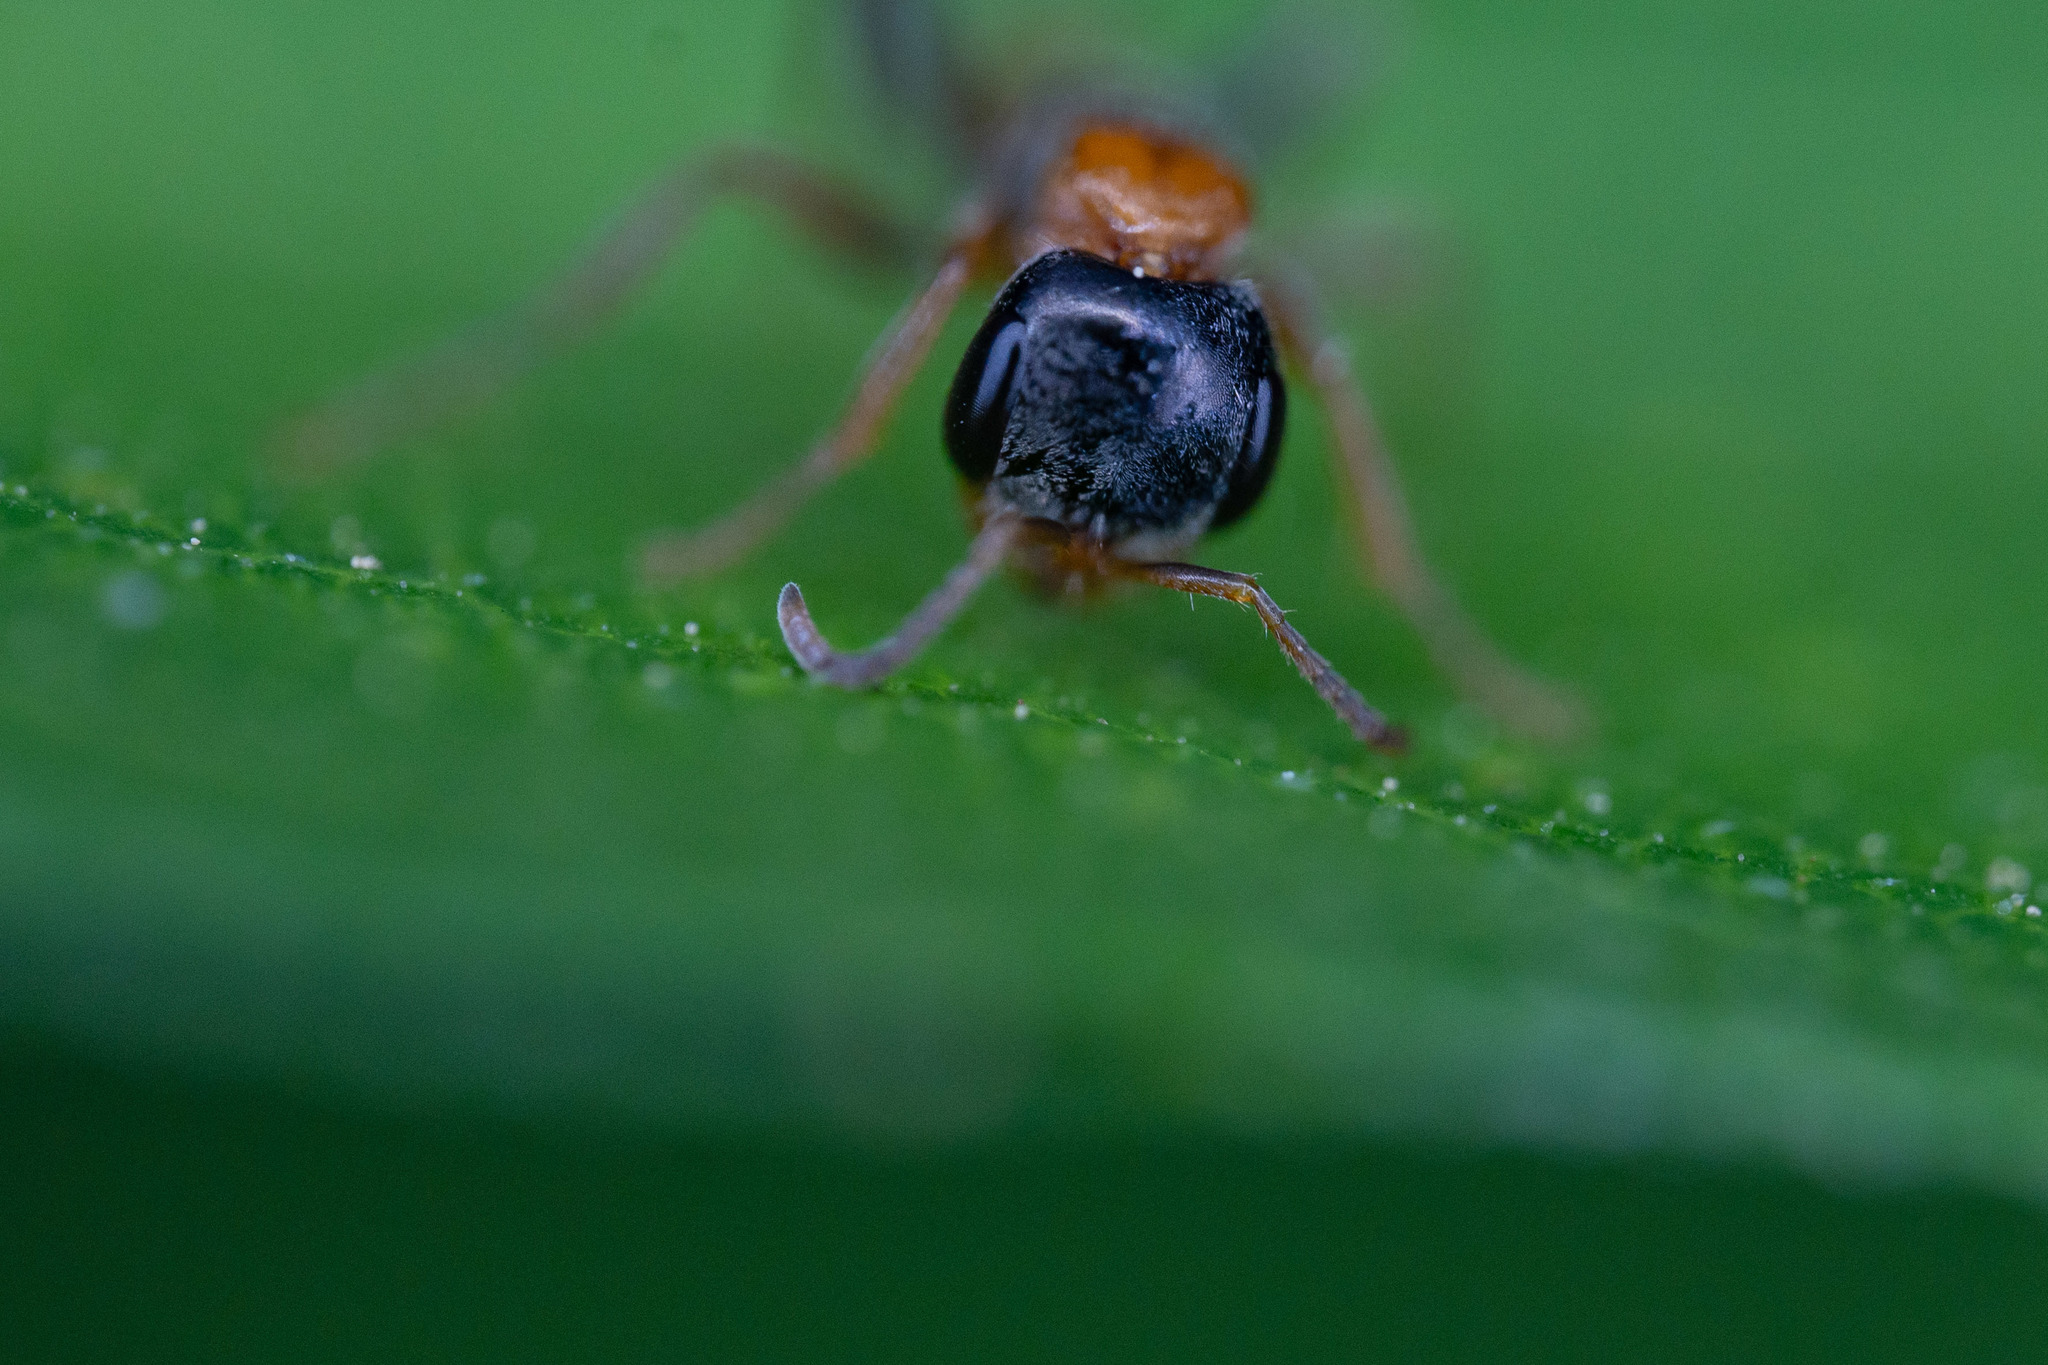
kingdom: Animalia
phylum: Arthropoda
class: Insecta
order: Hymenoptera
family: Formicidae
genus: Pseudomyrmex
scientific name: Pseudomyrmex gracilis
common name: Graceful twig ant
